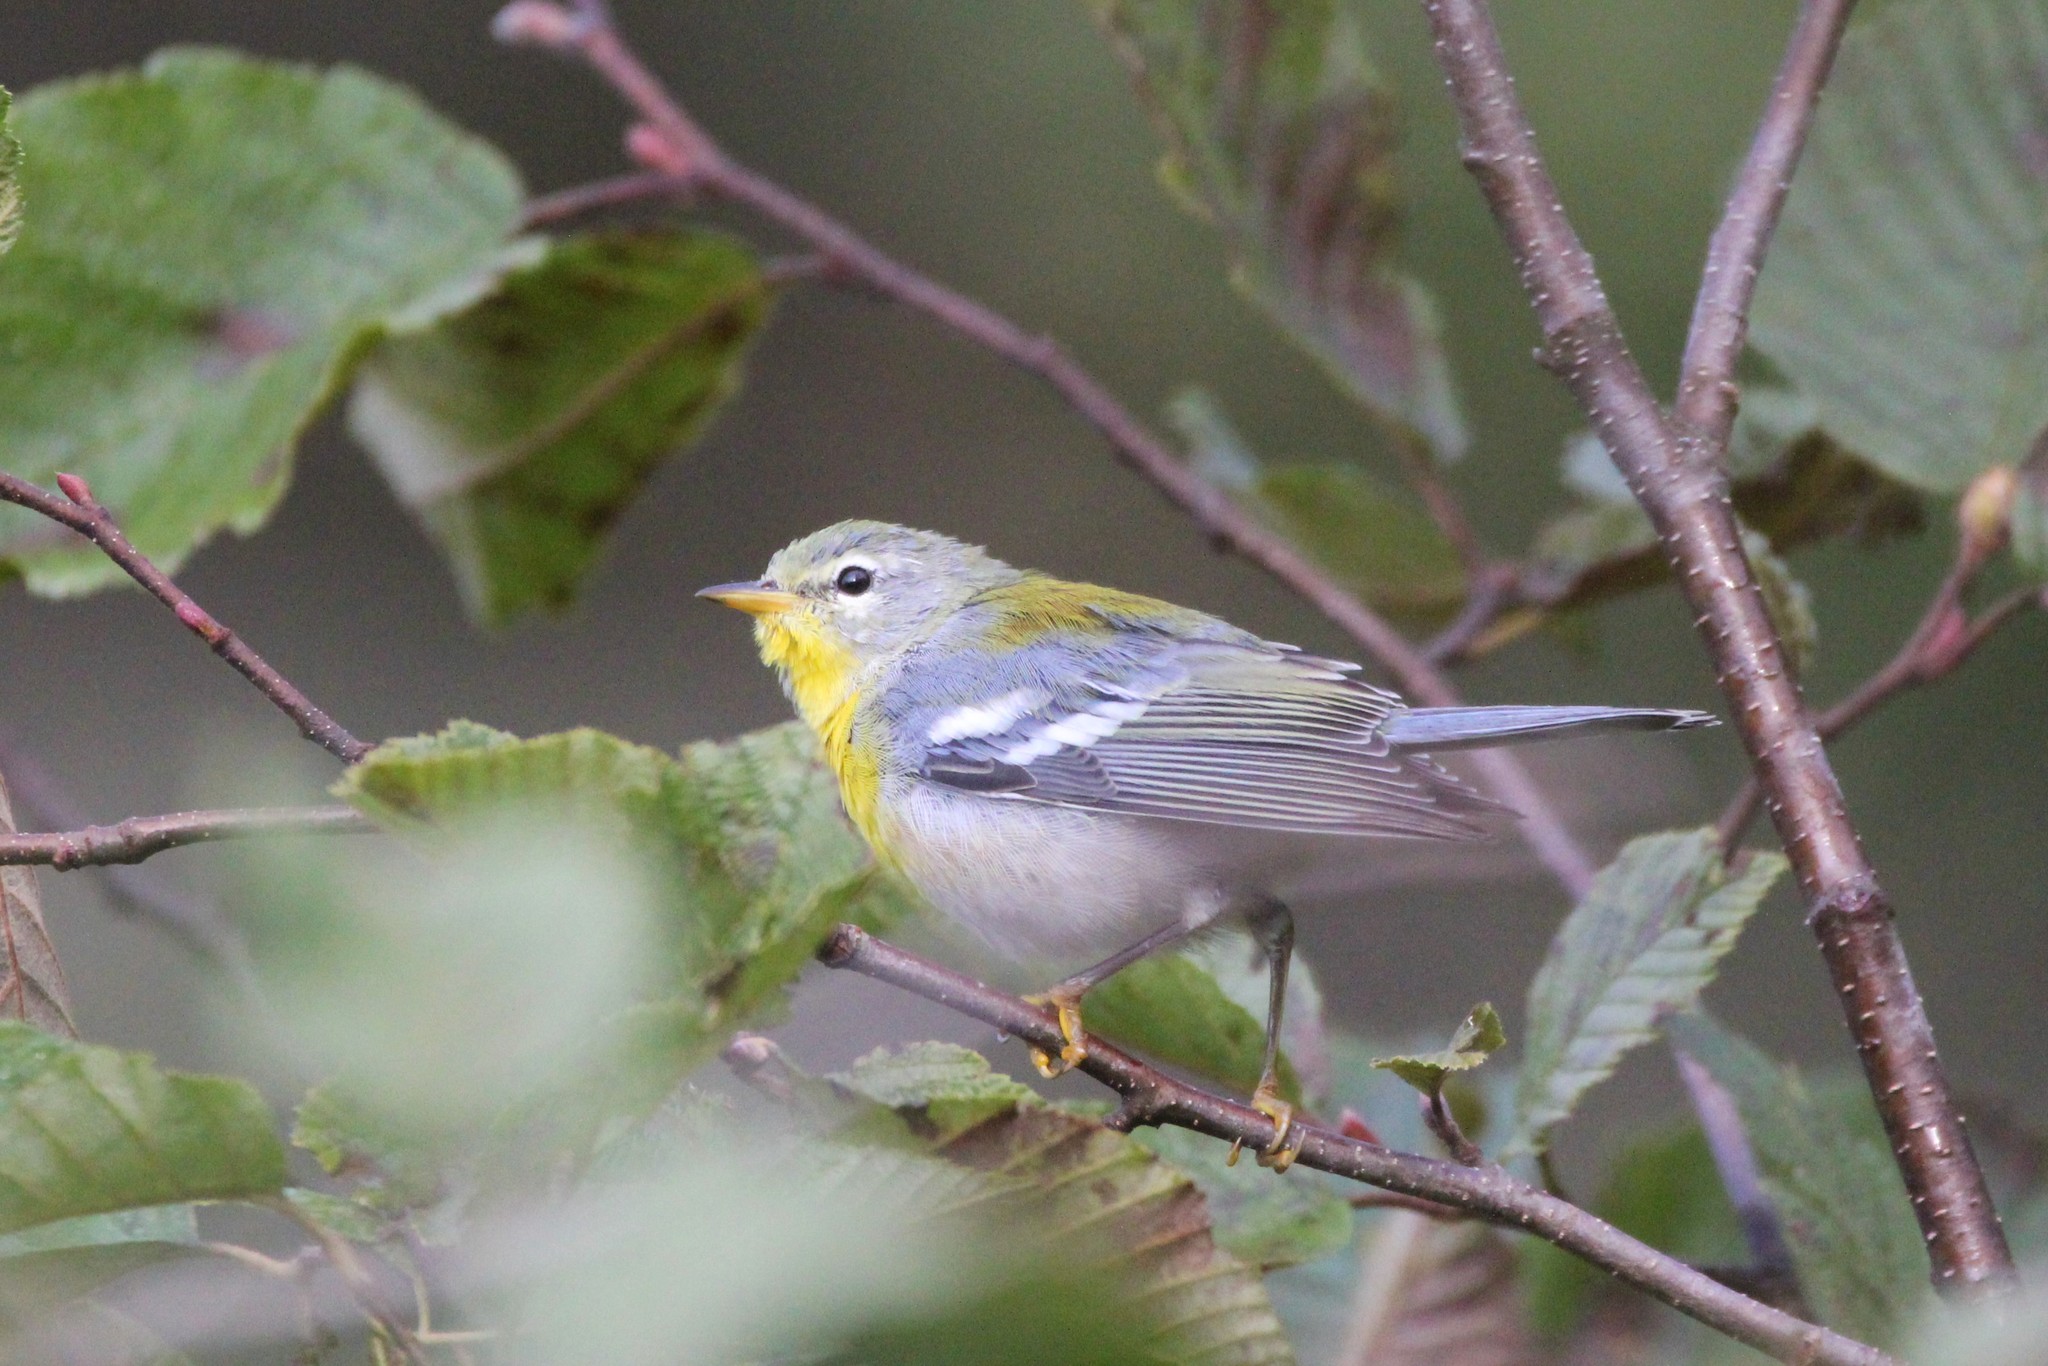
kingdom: Animalia
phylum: Chordata
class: Aves
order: Passeriformes
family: Parulidae
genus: Setophaga
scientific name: Setophaga americana
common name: Northern parula
